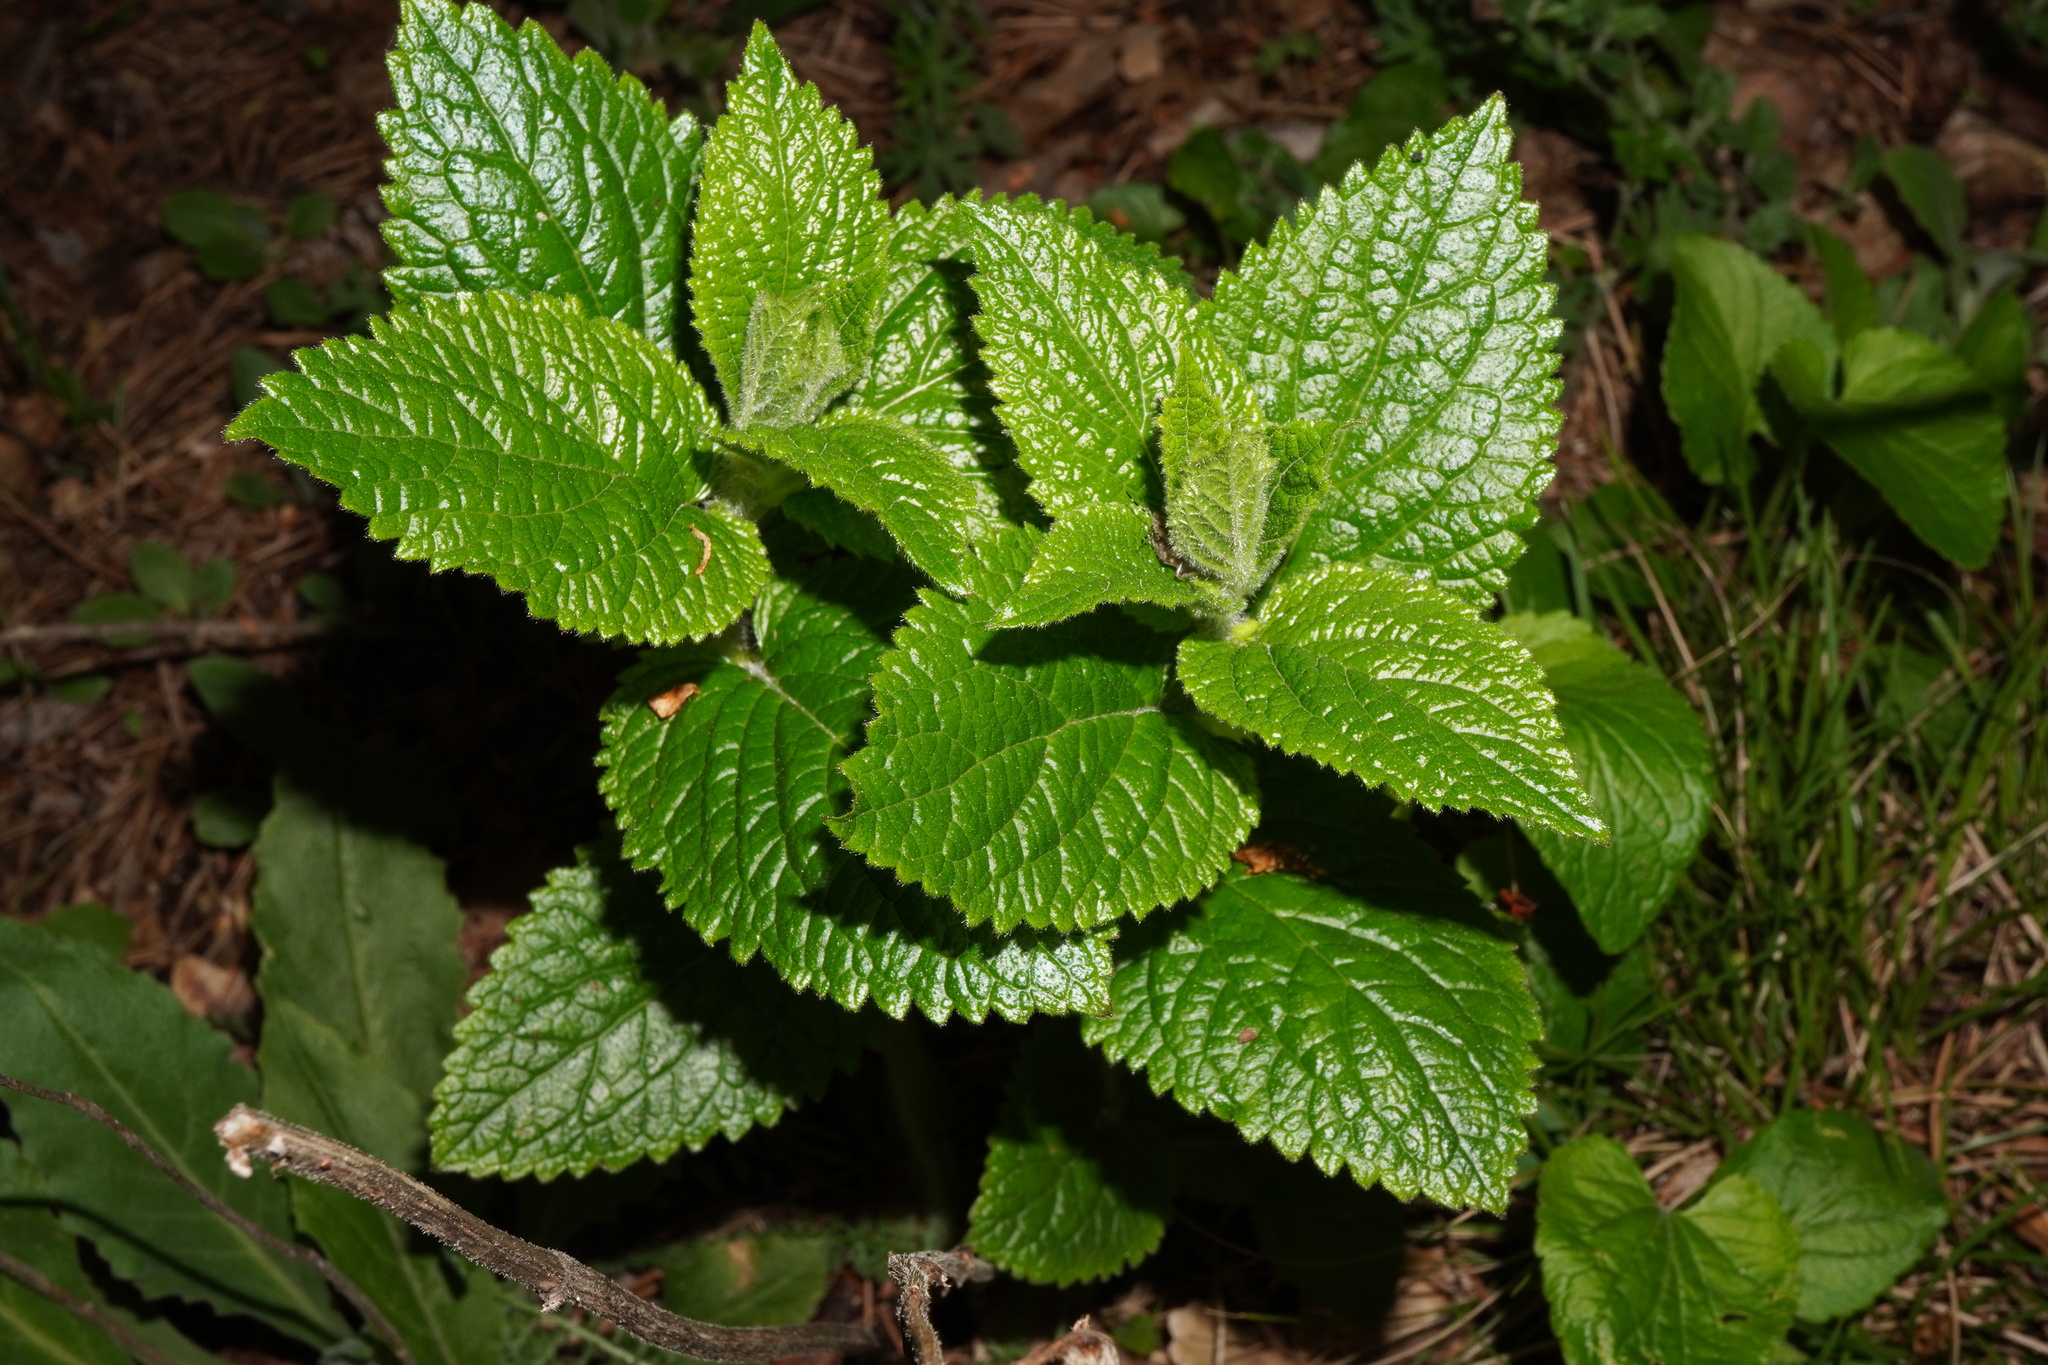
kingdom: Plantae
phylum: Tracheophyta
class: Magnoliopsida
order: Lamiales
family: Lamiaceae
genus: Melittis
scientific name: Melittis melissophyllum
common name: Bastard balm
